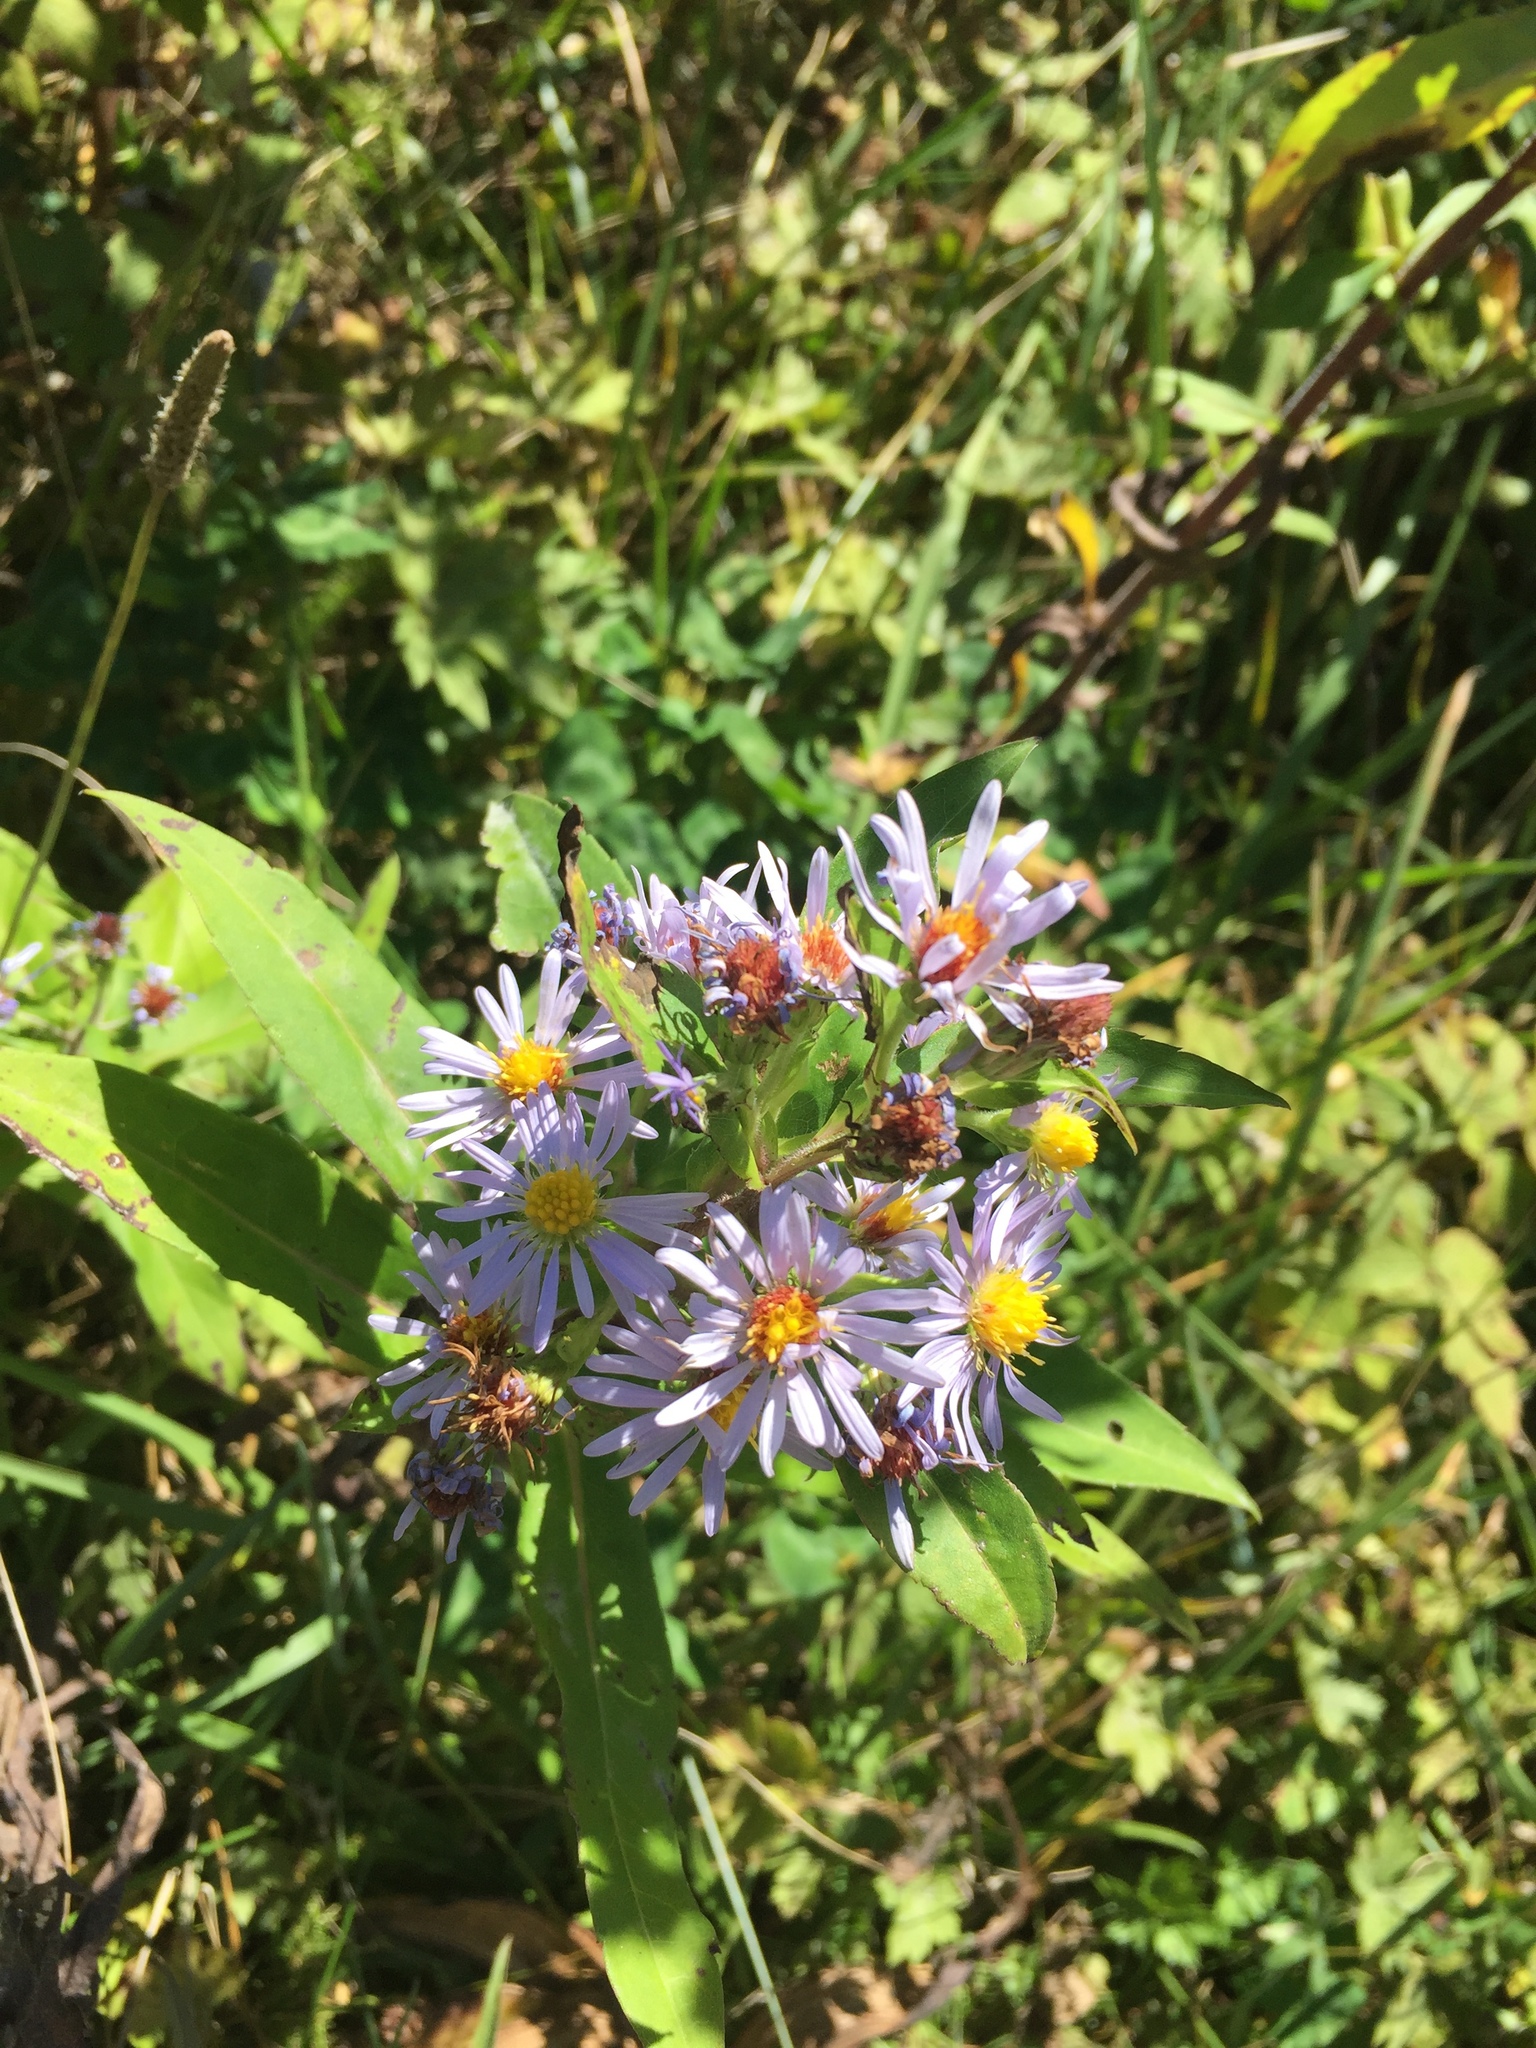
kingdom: Plantae
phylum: Tracheophyta
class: Magnoliopsida
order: Asterales
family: Asteraceae
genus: Symphyotrichum
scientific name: Symphyotrichum puniceum
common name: Bog aster
